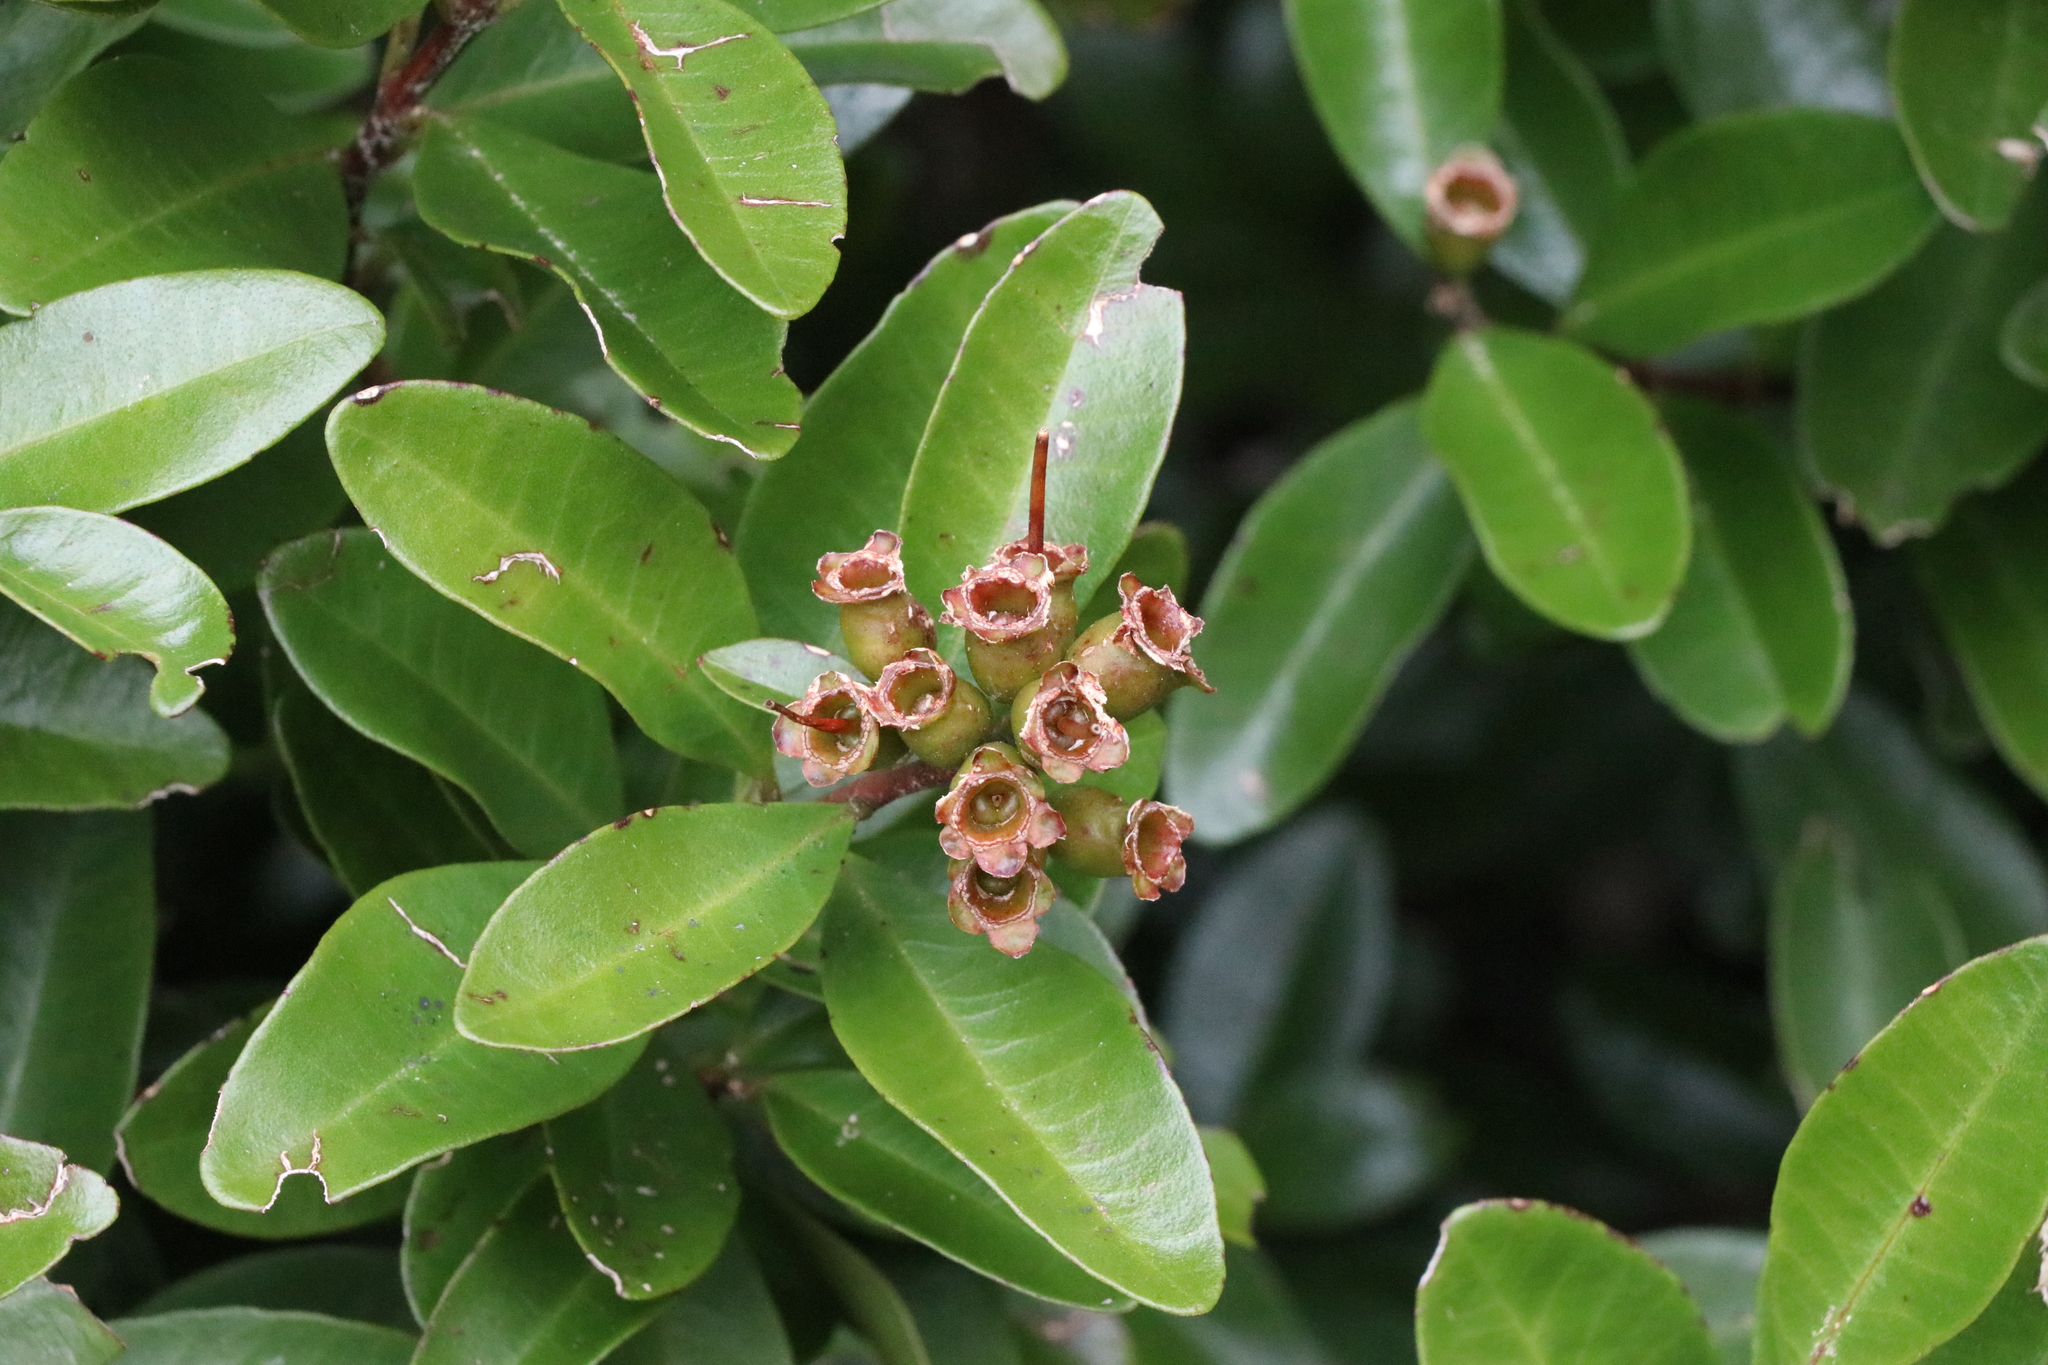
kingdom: Plantae
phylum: Tracheophyta
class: Magnoliopsida
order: Myrtales
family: Myrtaceae
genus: Metrosideros
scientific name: Metrosideros fulgens
